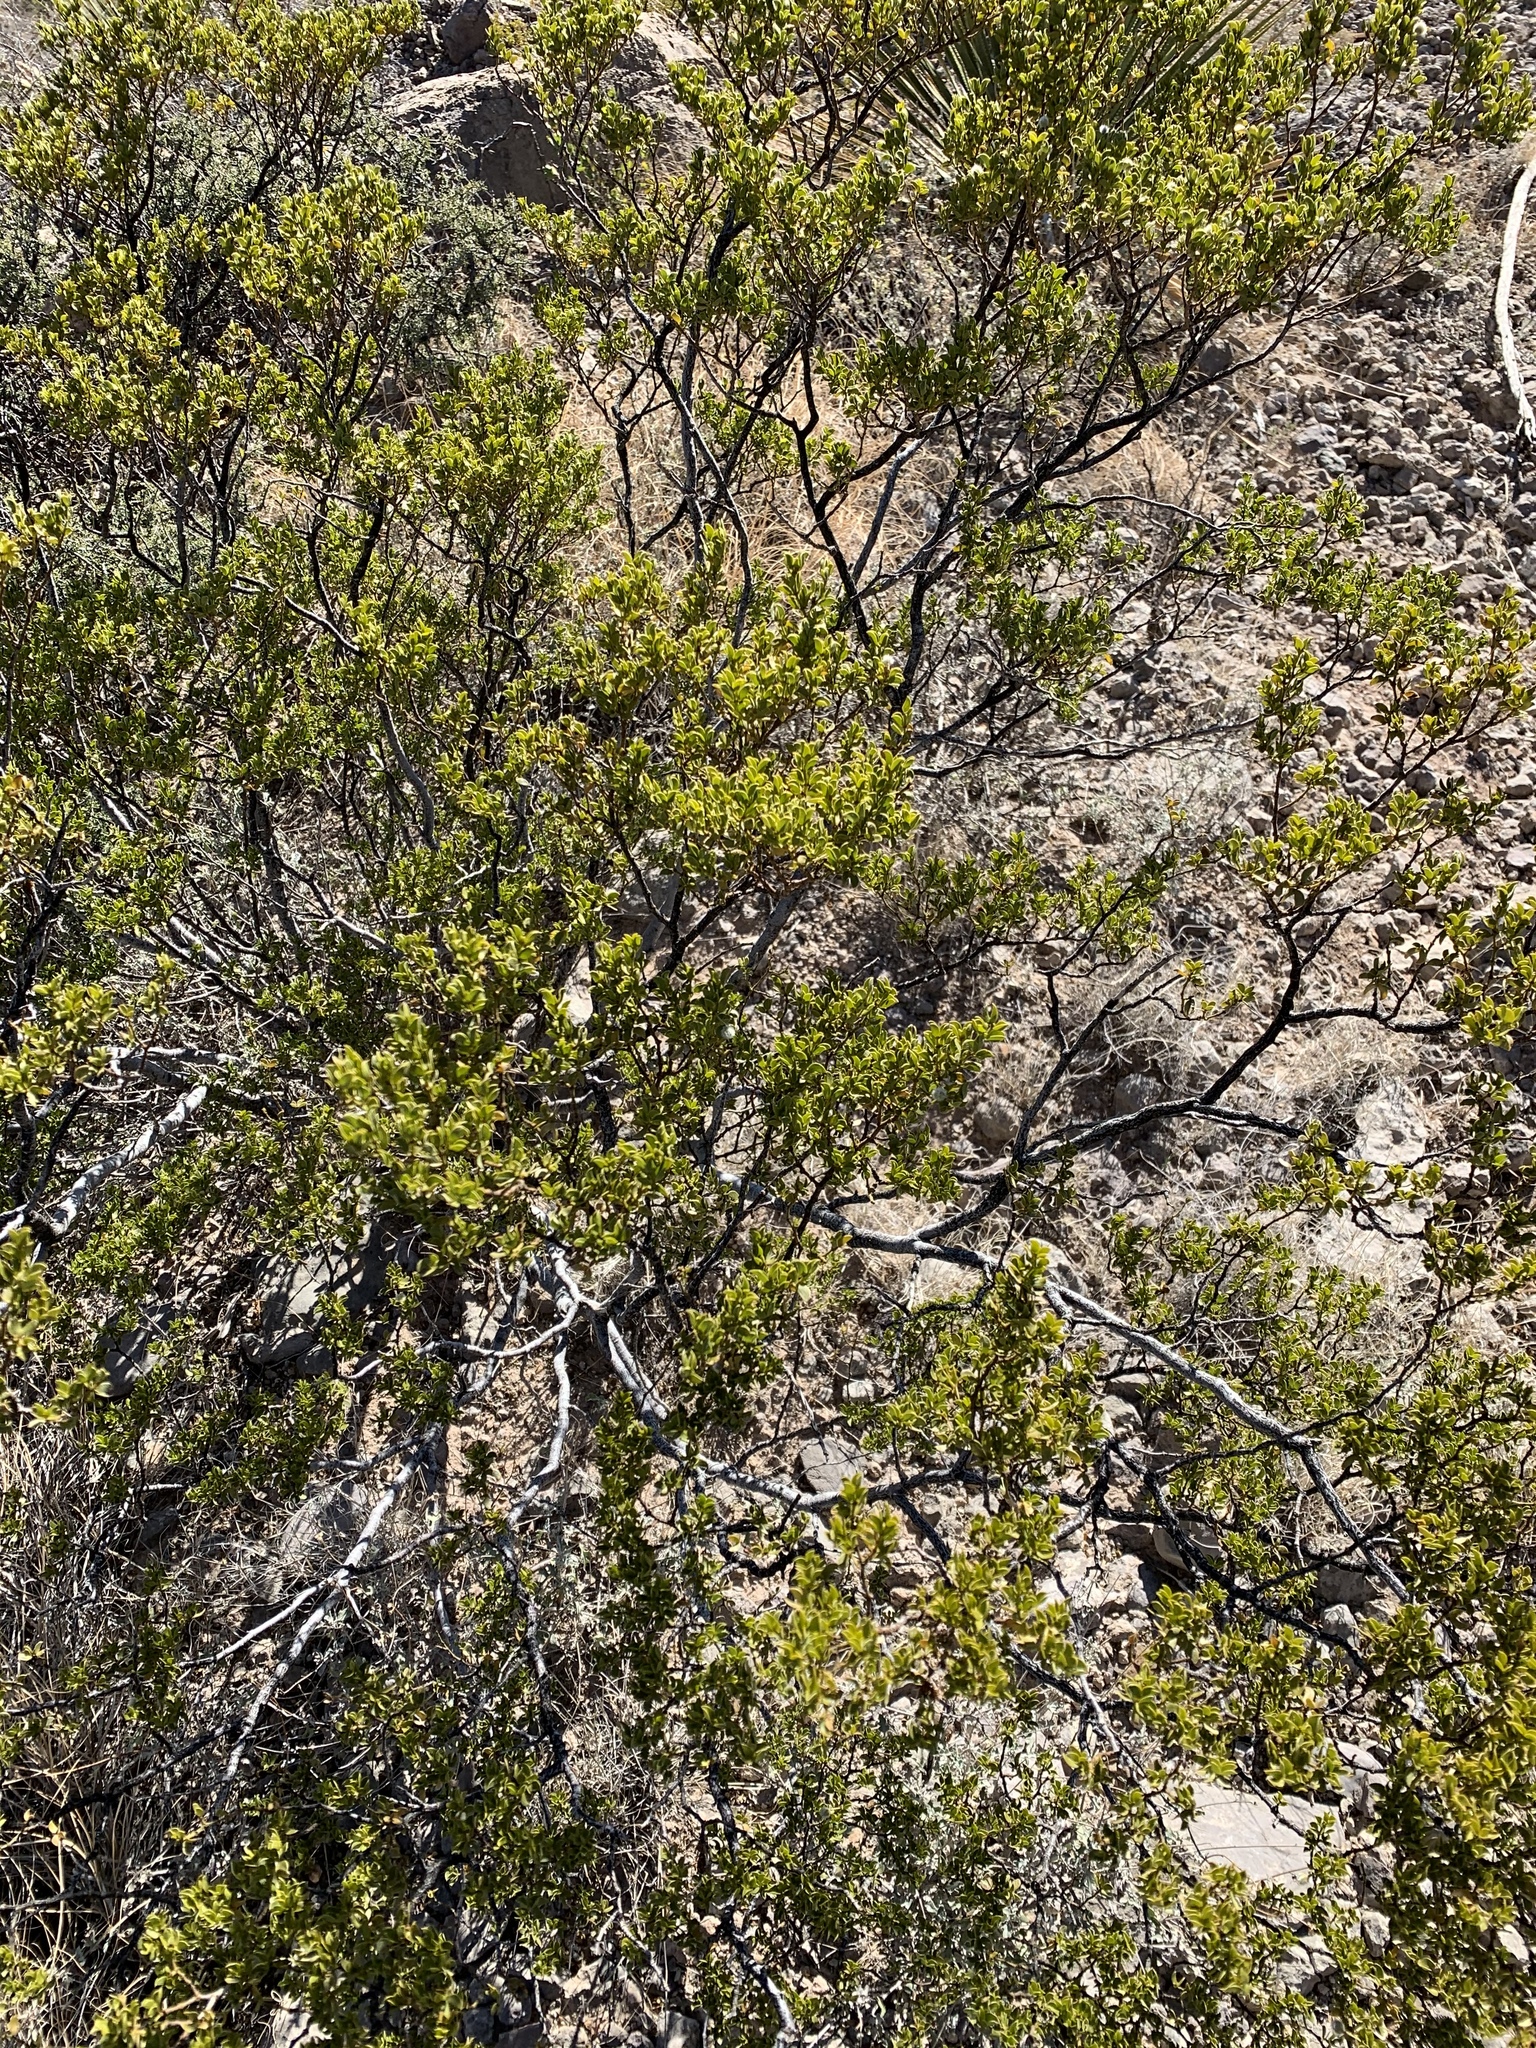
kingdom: Plantae
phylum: Tracheophyta
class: Magnoliopsida
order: Zygophyllales
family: Zygophyllaceae
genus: Larrea
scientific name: Larrea tridentata
